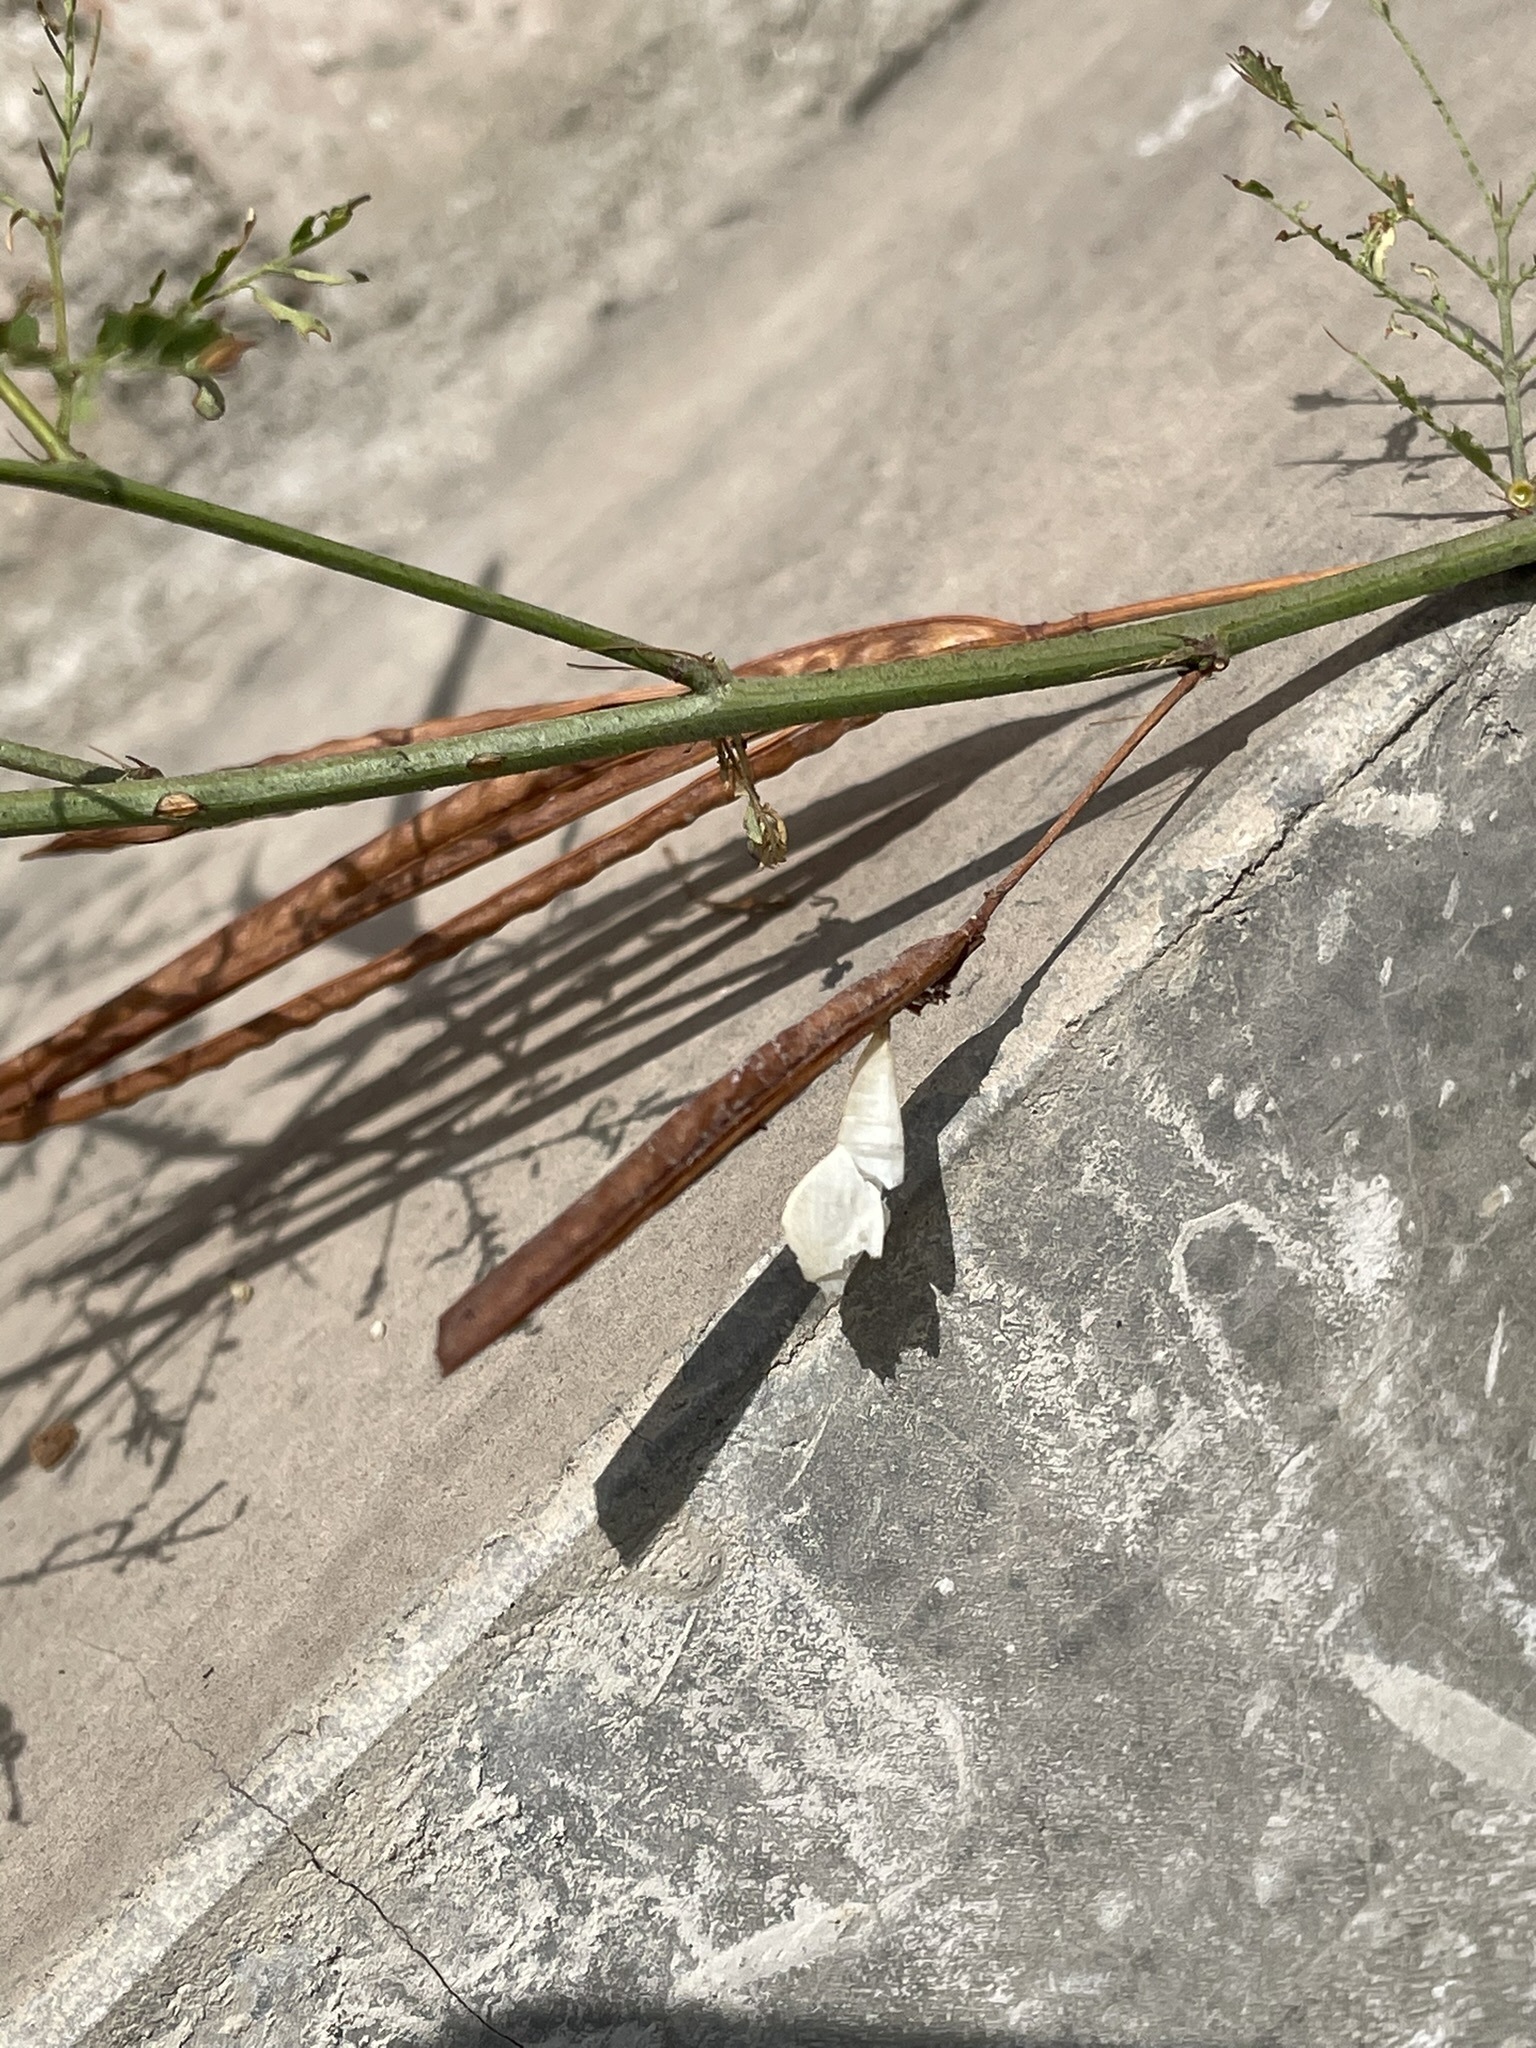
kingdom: Plantae
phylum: Tracheophyta
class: Magnoliopsida
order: Fabales
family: Fabaceae
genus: Desmanthus
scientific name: Desmanthus virgatus
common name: Wild tantan
